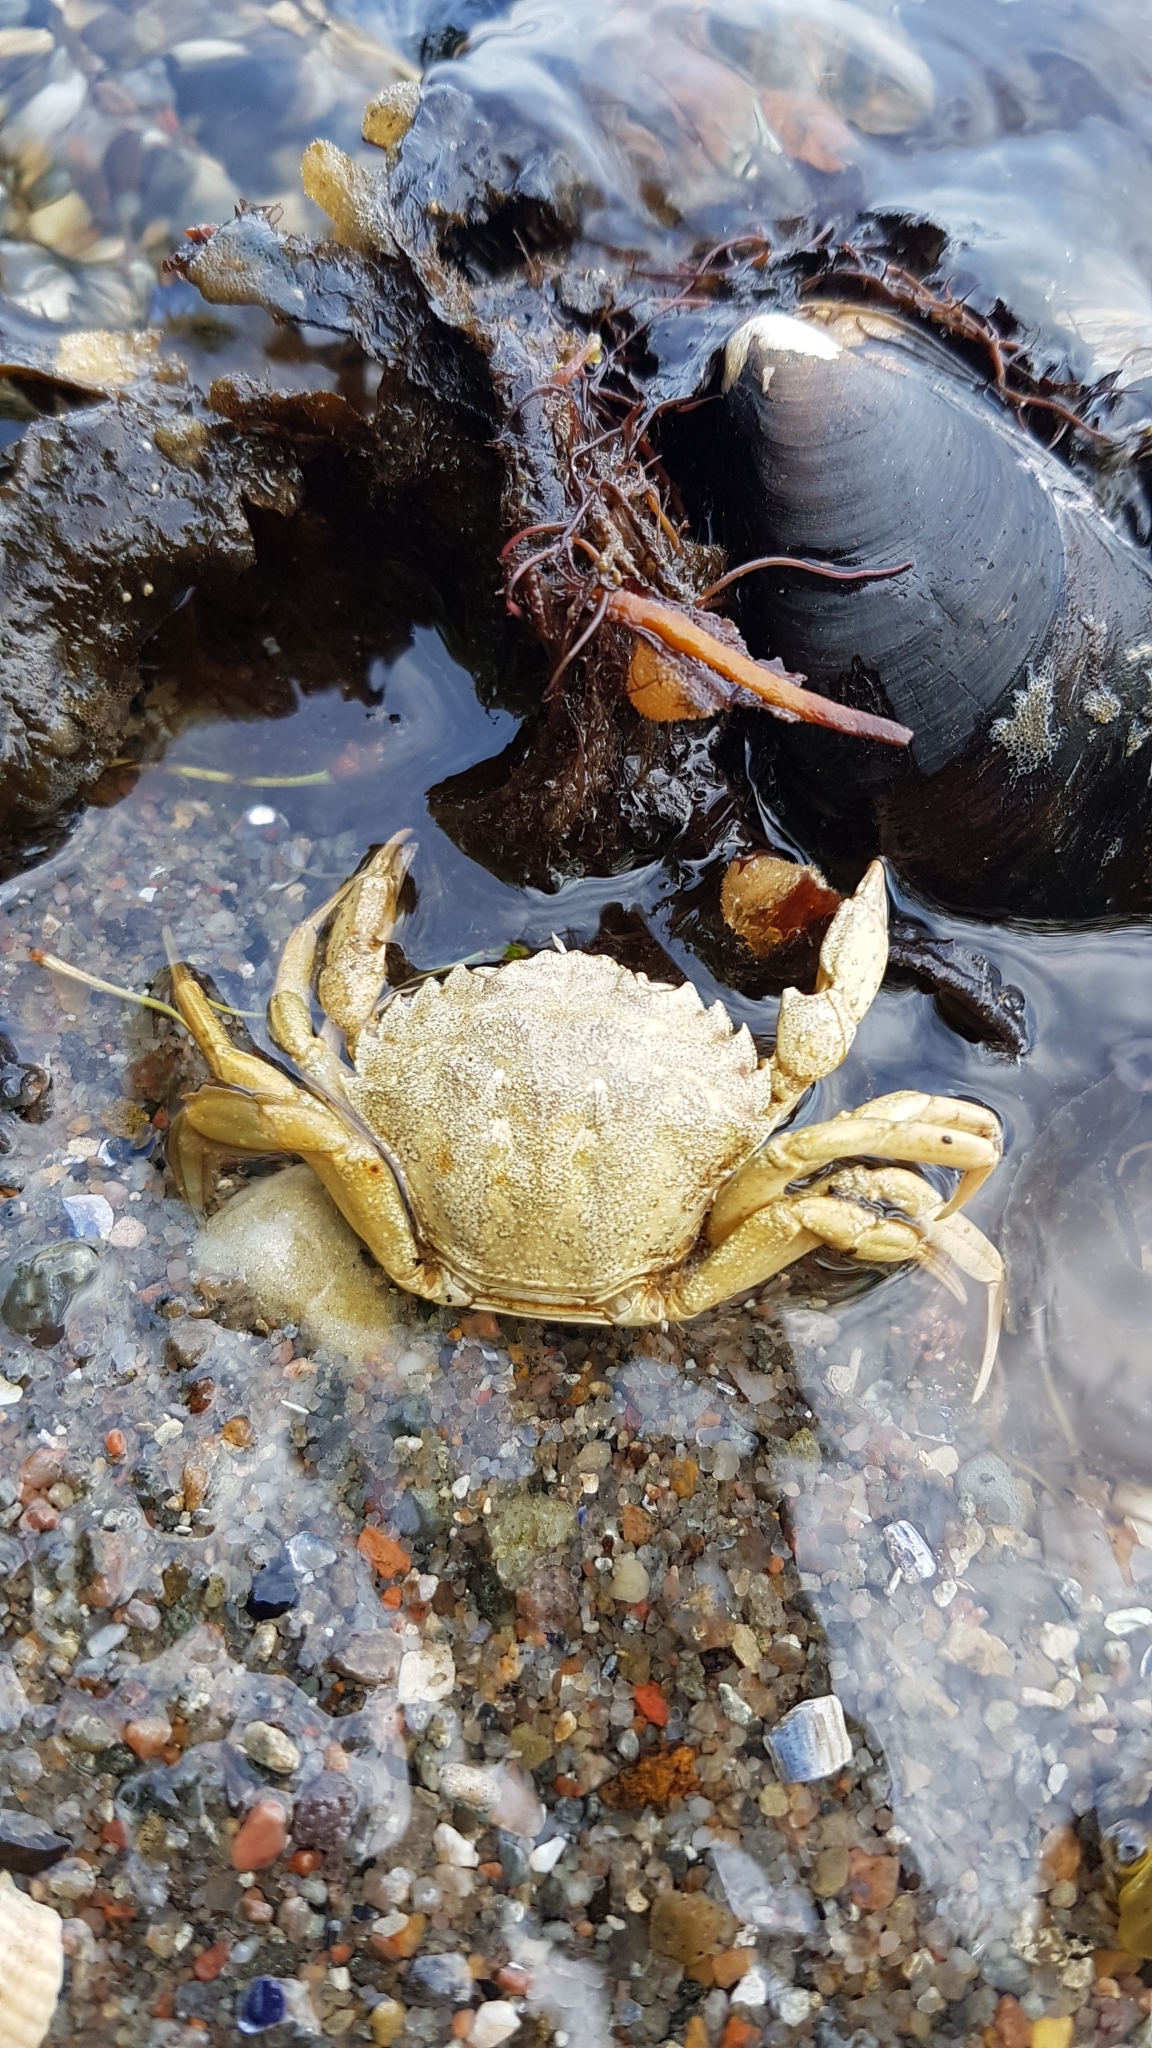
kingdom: Animalia
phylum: Arthropoda
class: Malacostraca
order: Decapoda
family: Carcinidae
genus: Carcinus
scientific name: Carcinus maenas
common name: European green crab
